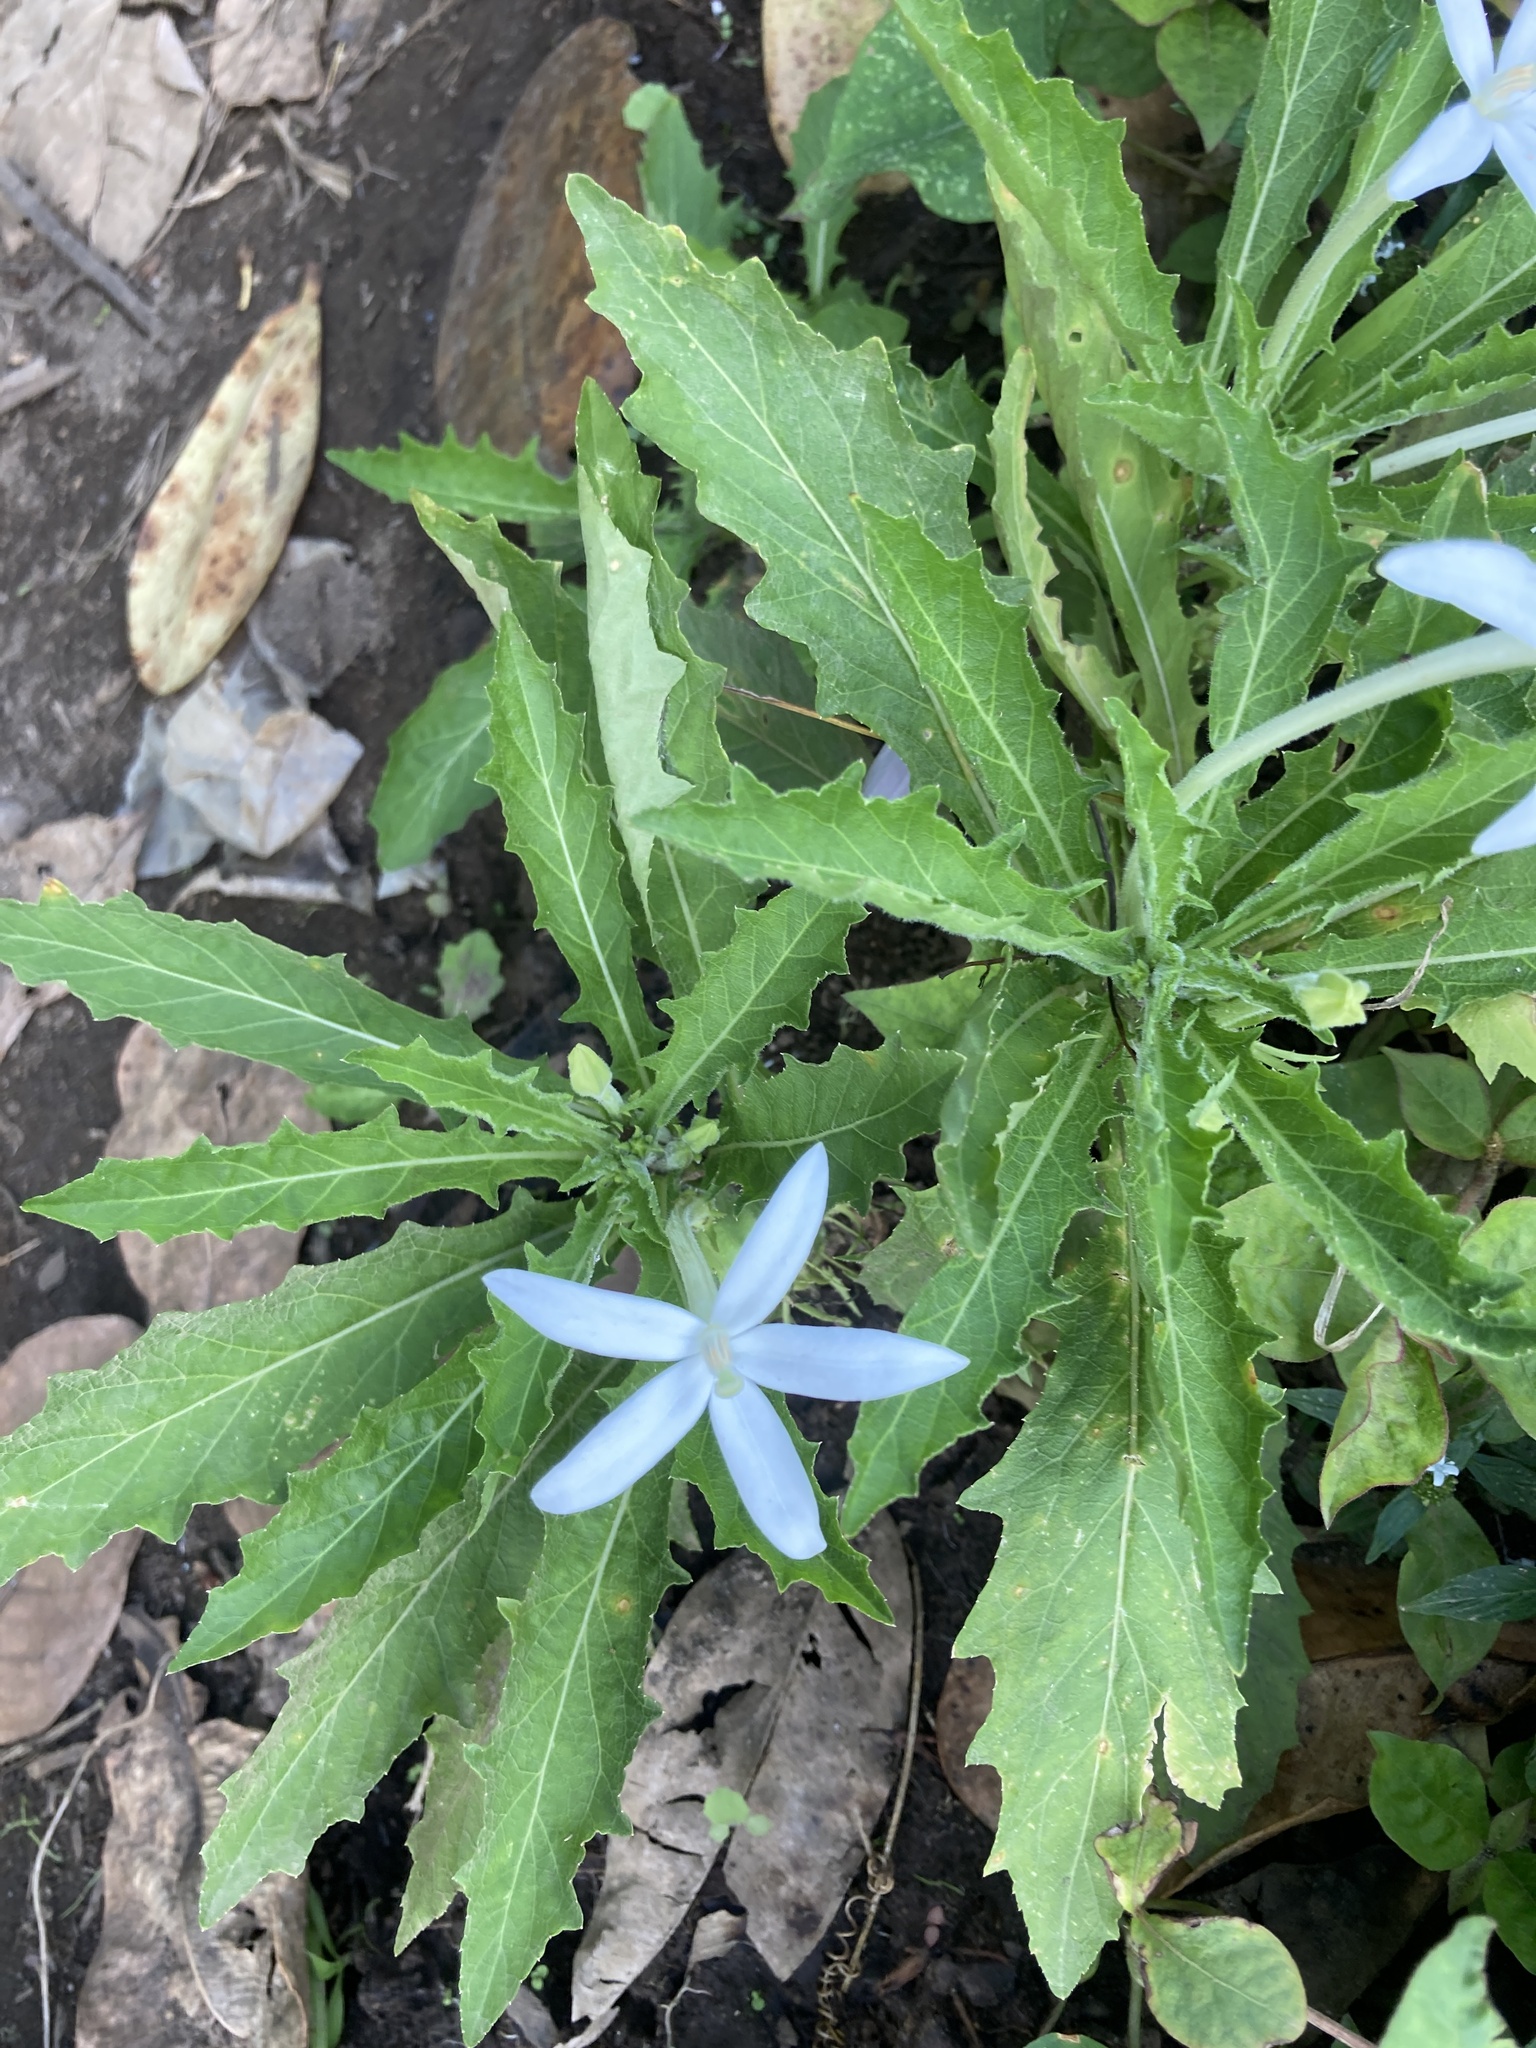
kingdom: Plantae
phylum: Tracheophyta
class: Magnoliopsida
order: Asterales
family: Campanulaceae
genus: Hippobroma
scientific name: Hippobroma longiflora
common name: Madamfate
